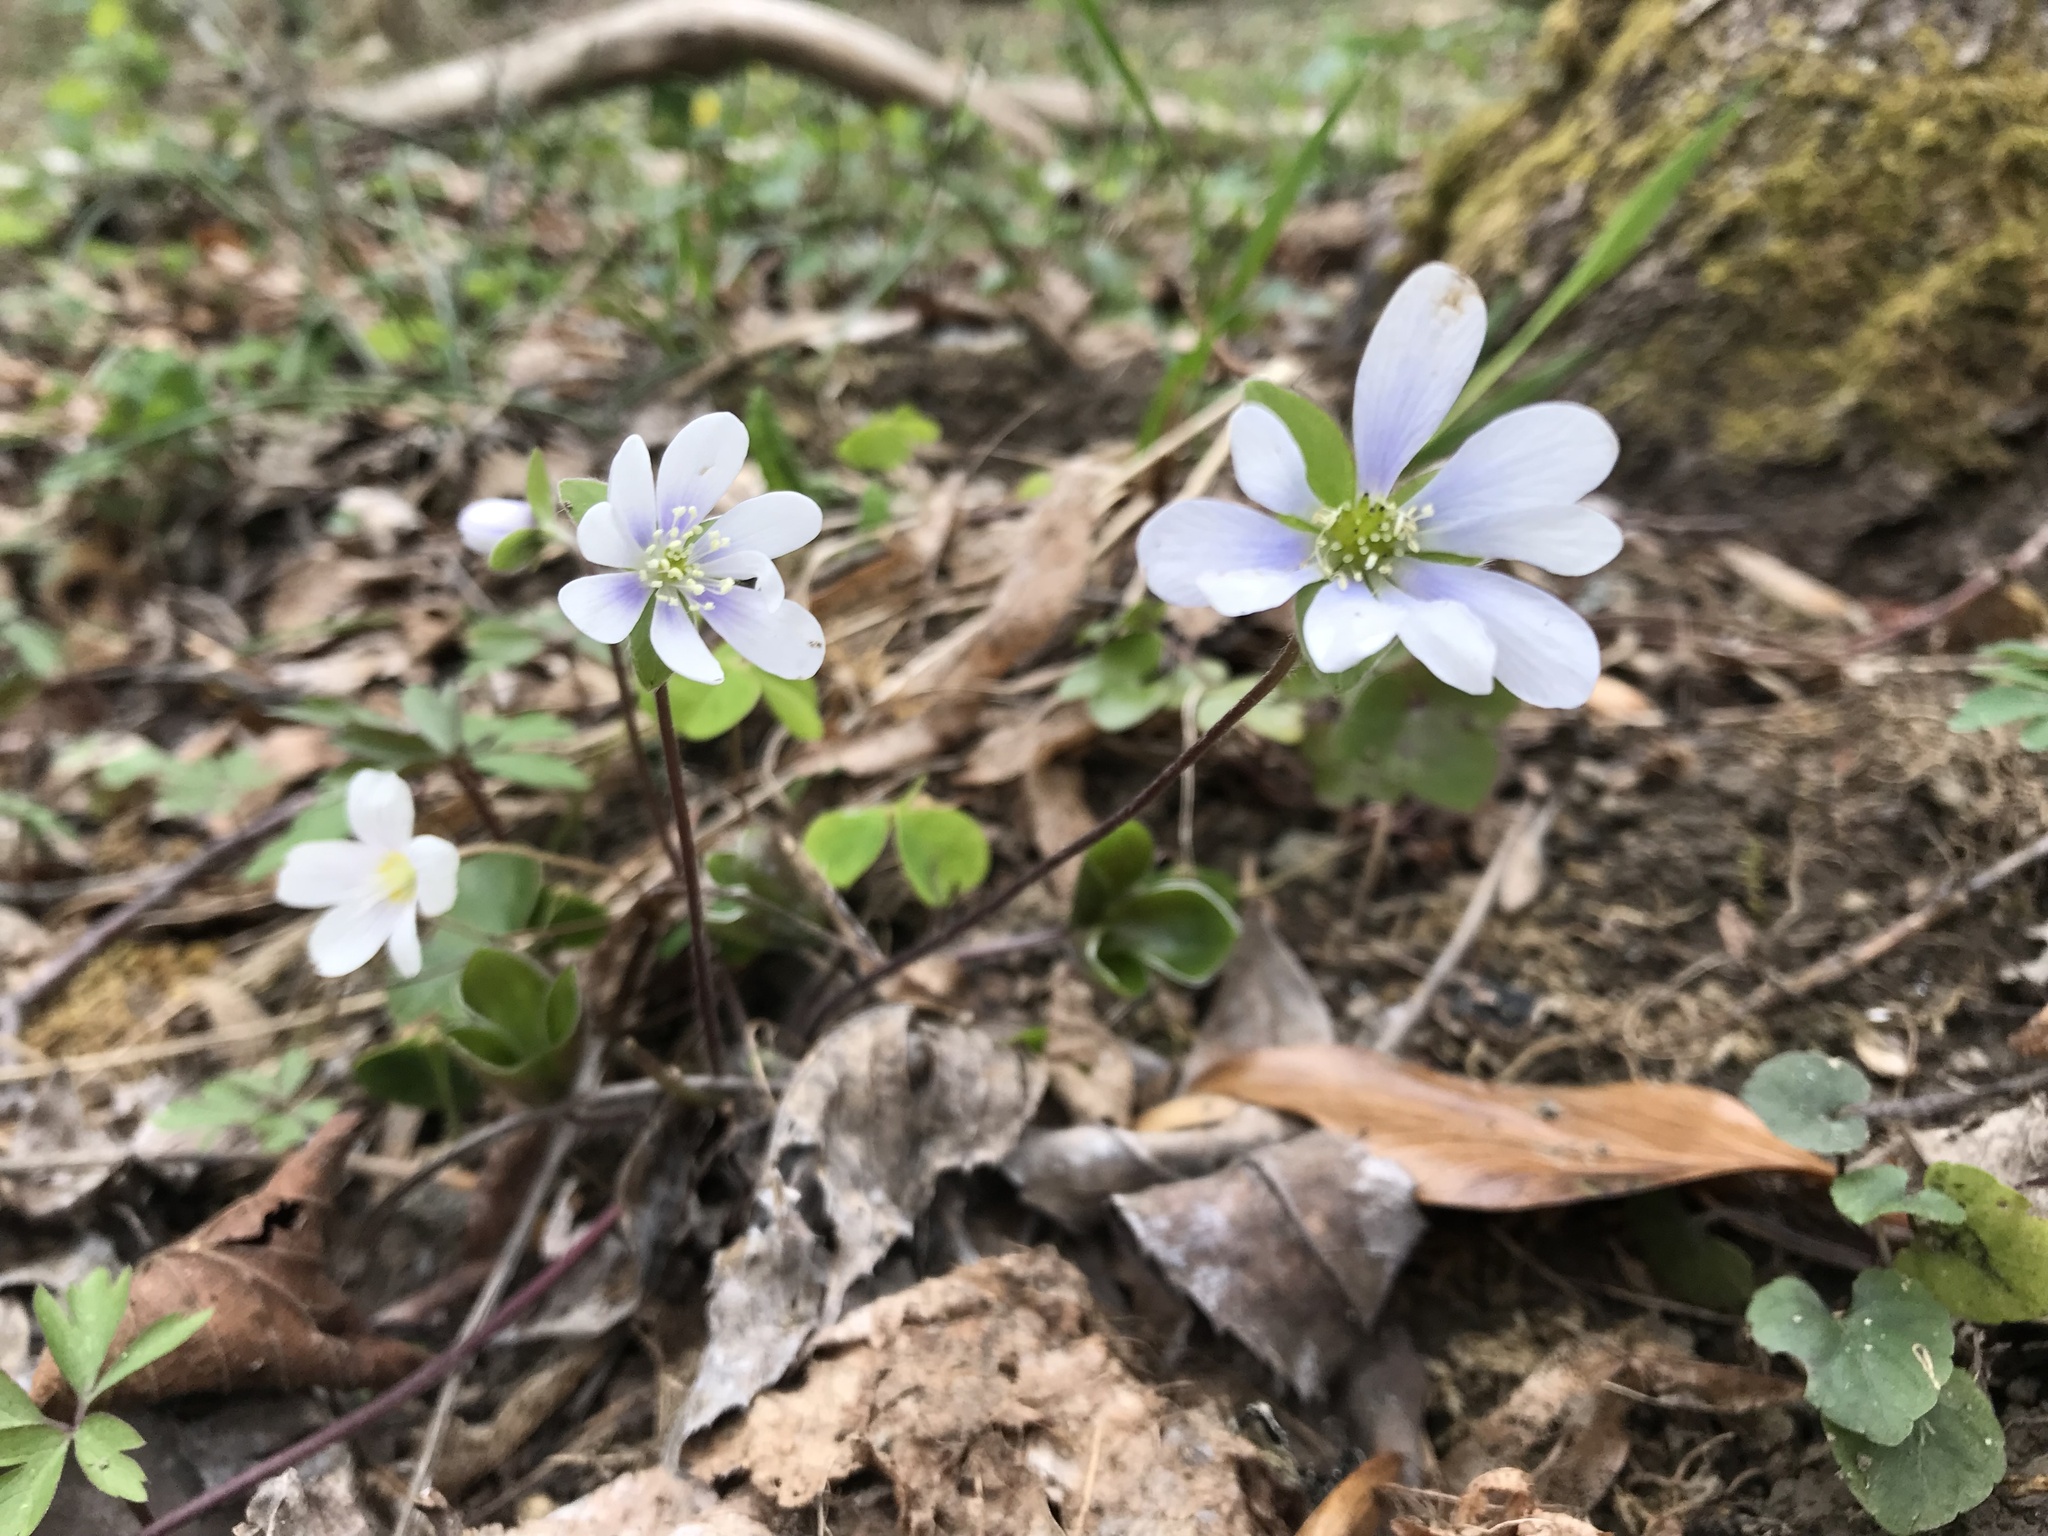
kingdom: Plantae
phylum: Tracheophyta
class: Magnoliopsida
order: Ranunculales
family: Ranunculaceae
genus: Hepatica
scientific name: Hepatica nobilis
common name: Liverleaf
